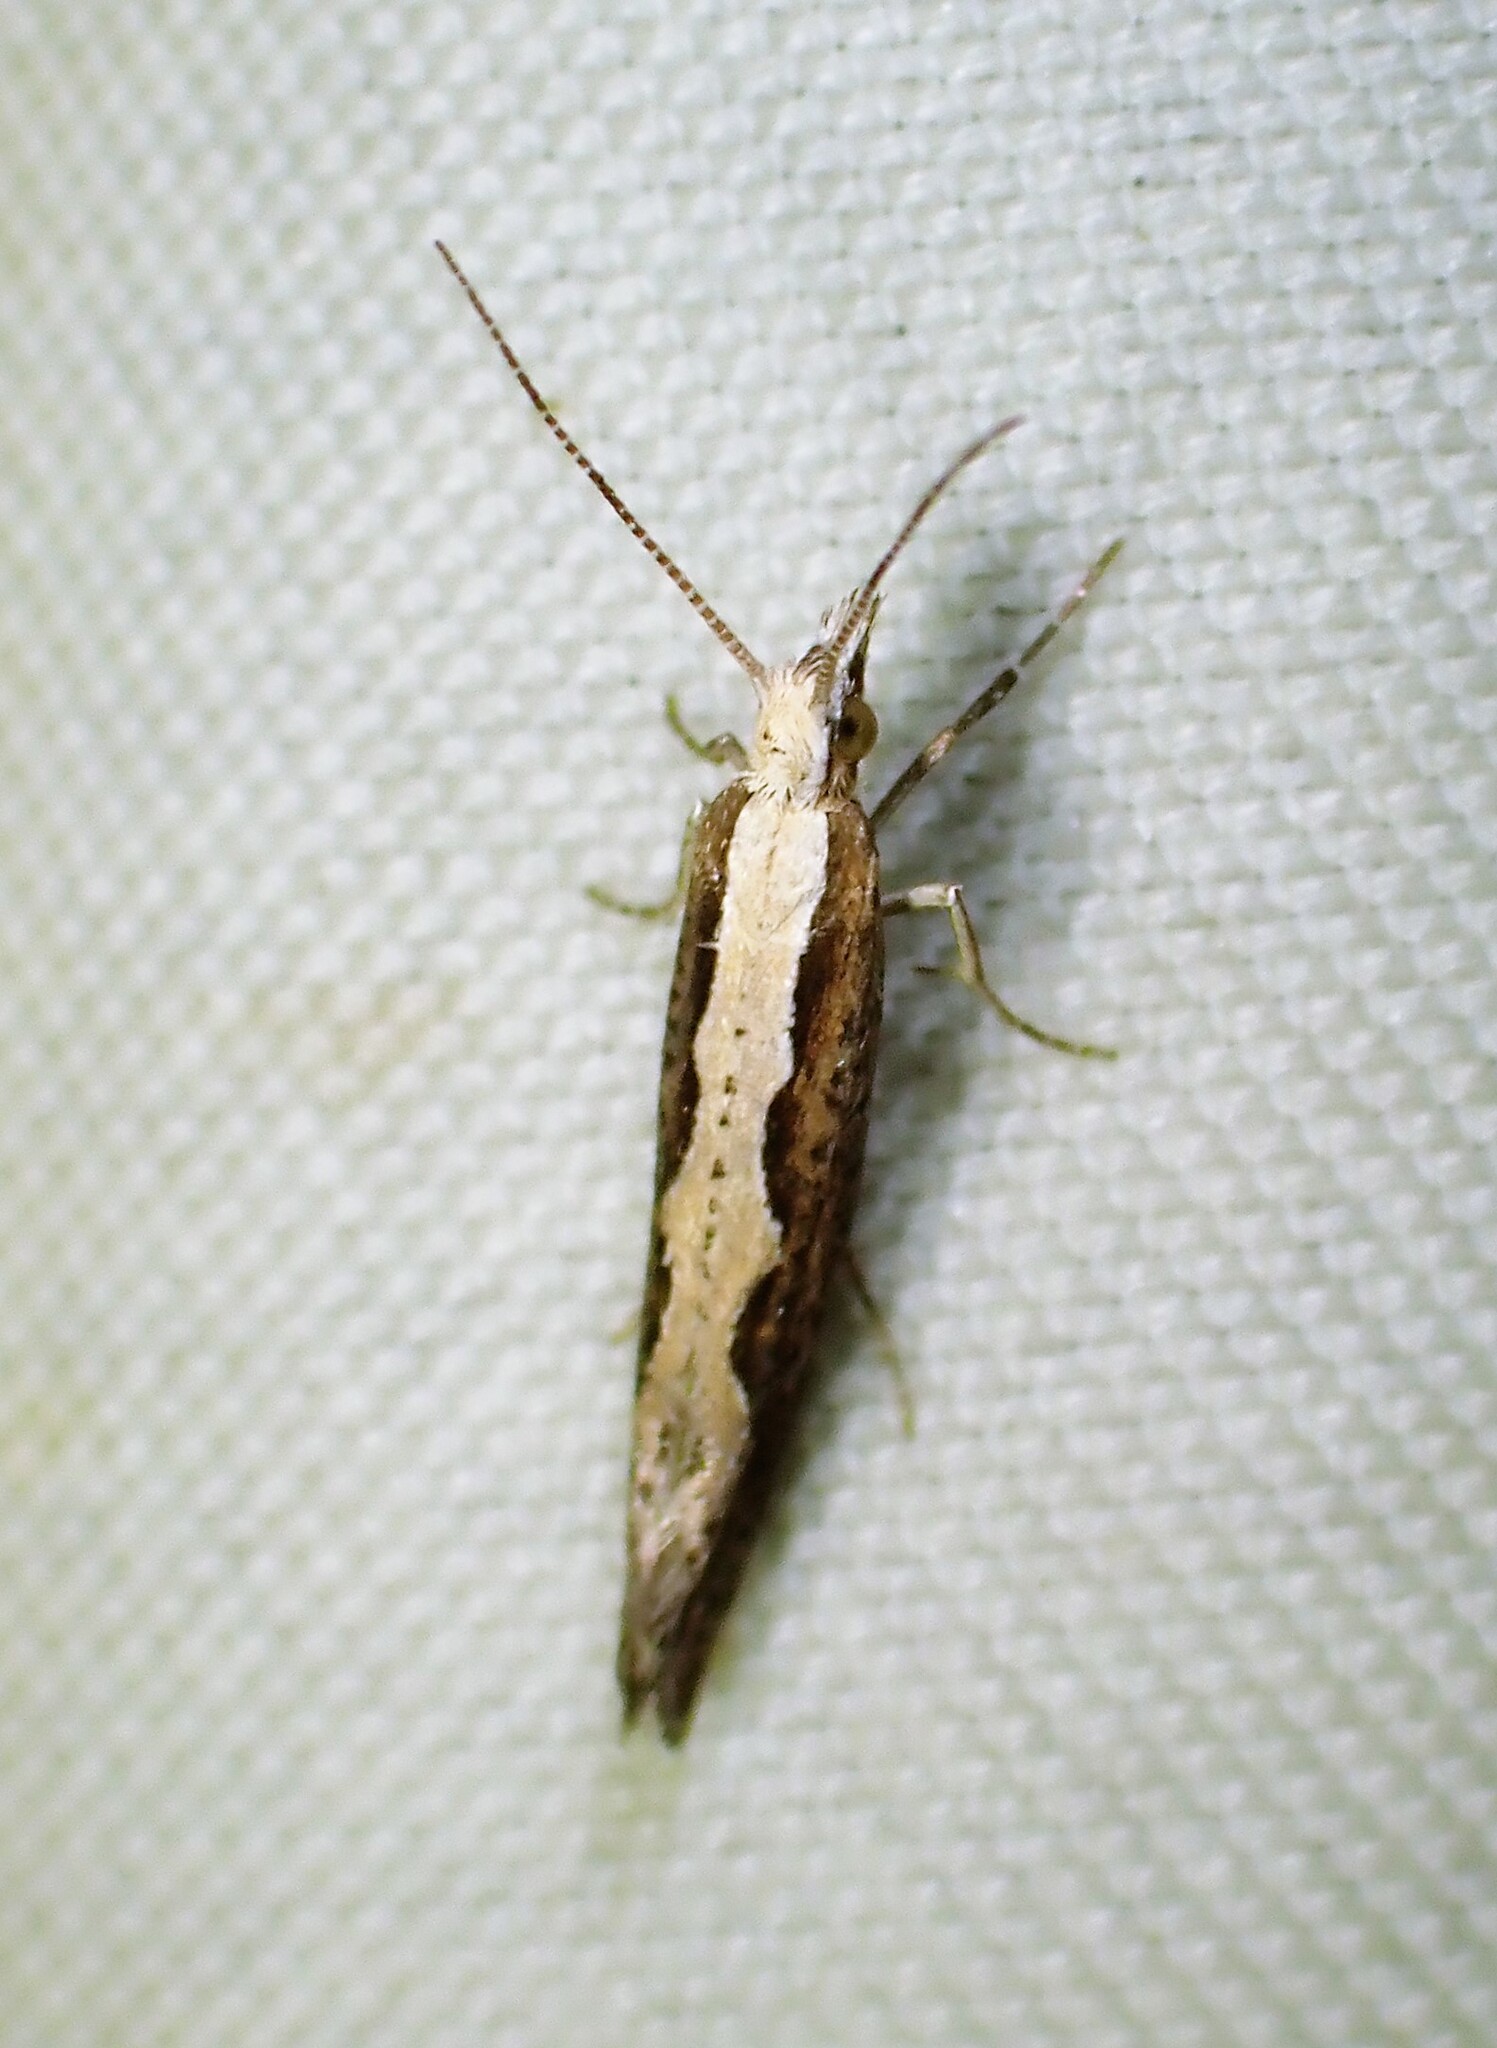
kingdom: Animalia
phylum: Arthropoda
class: Insecta
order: Lepidoptera
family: Plutellidae
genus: Plutella
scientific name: Plutella xylostella
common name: Diamond-back moth
